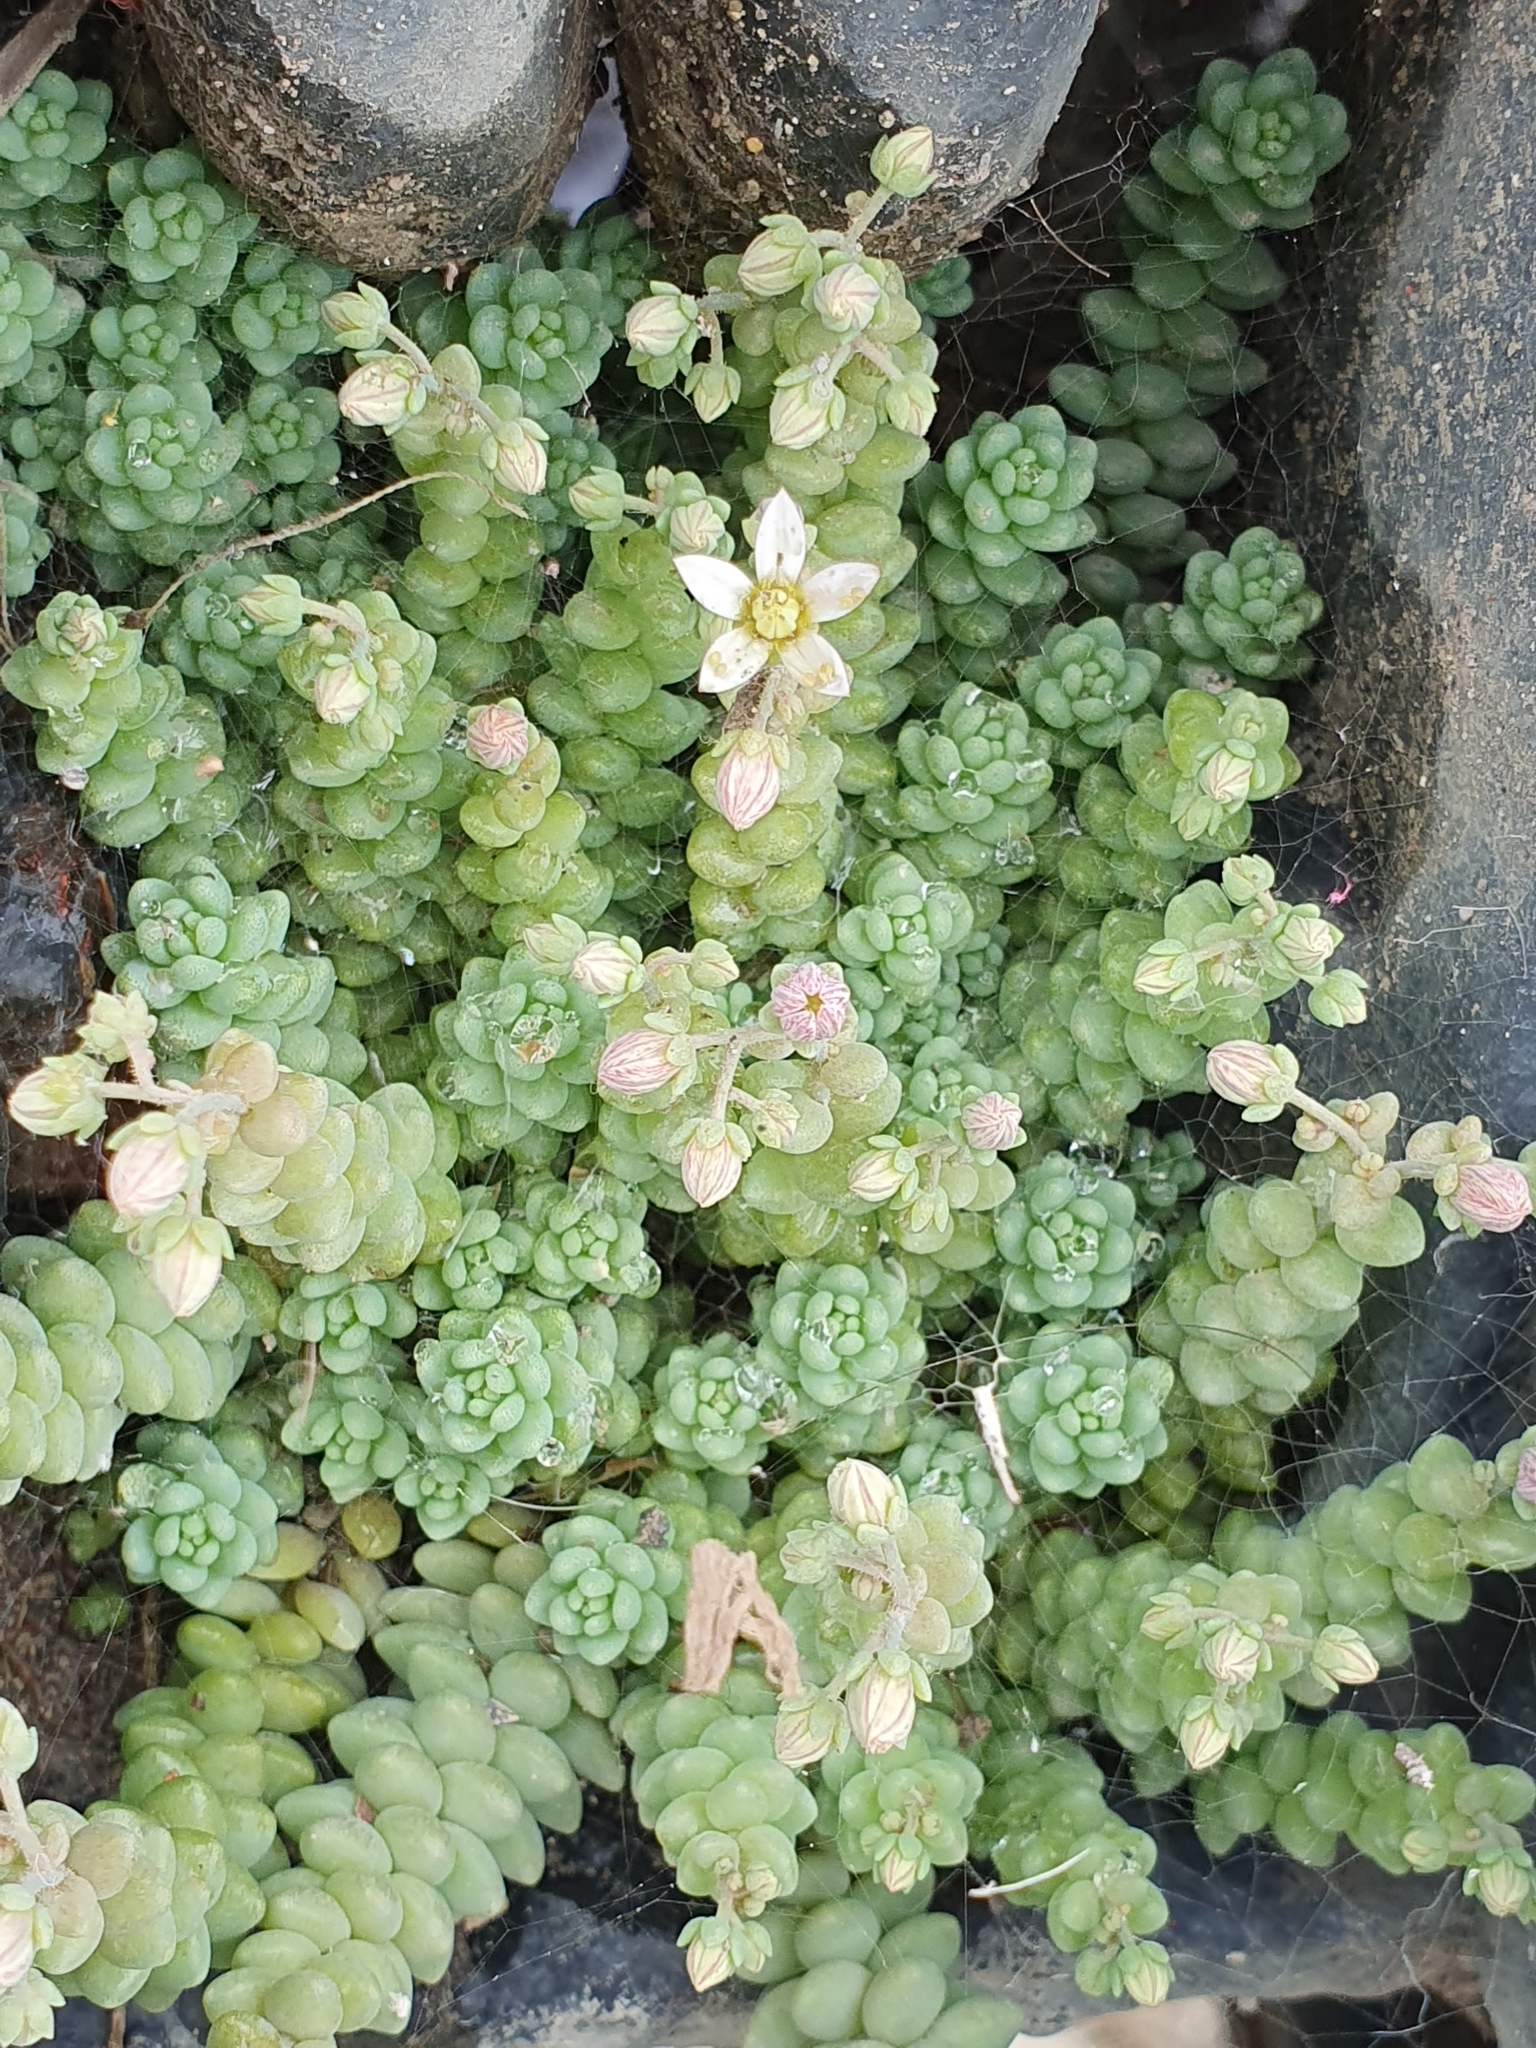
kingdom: Plantae
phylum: Tracheophyta
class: Magnoliopsida
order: Saxifragales
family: Crassulaceae
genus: Sedum
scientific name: Sedum dasyphyllum
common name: Thick-leaf stonecrop
